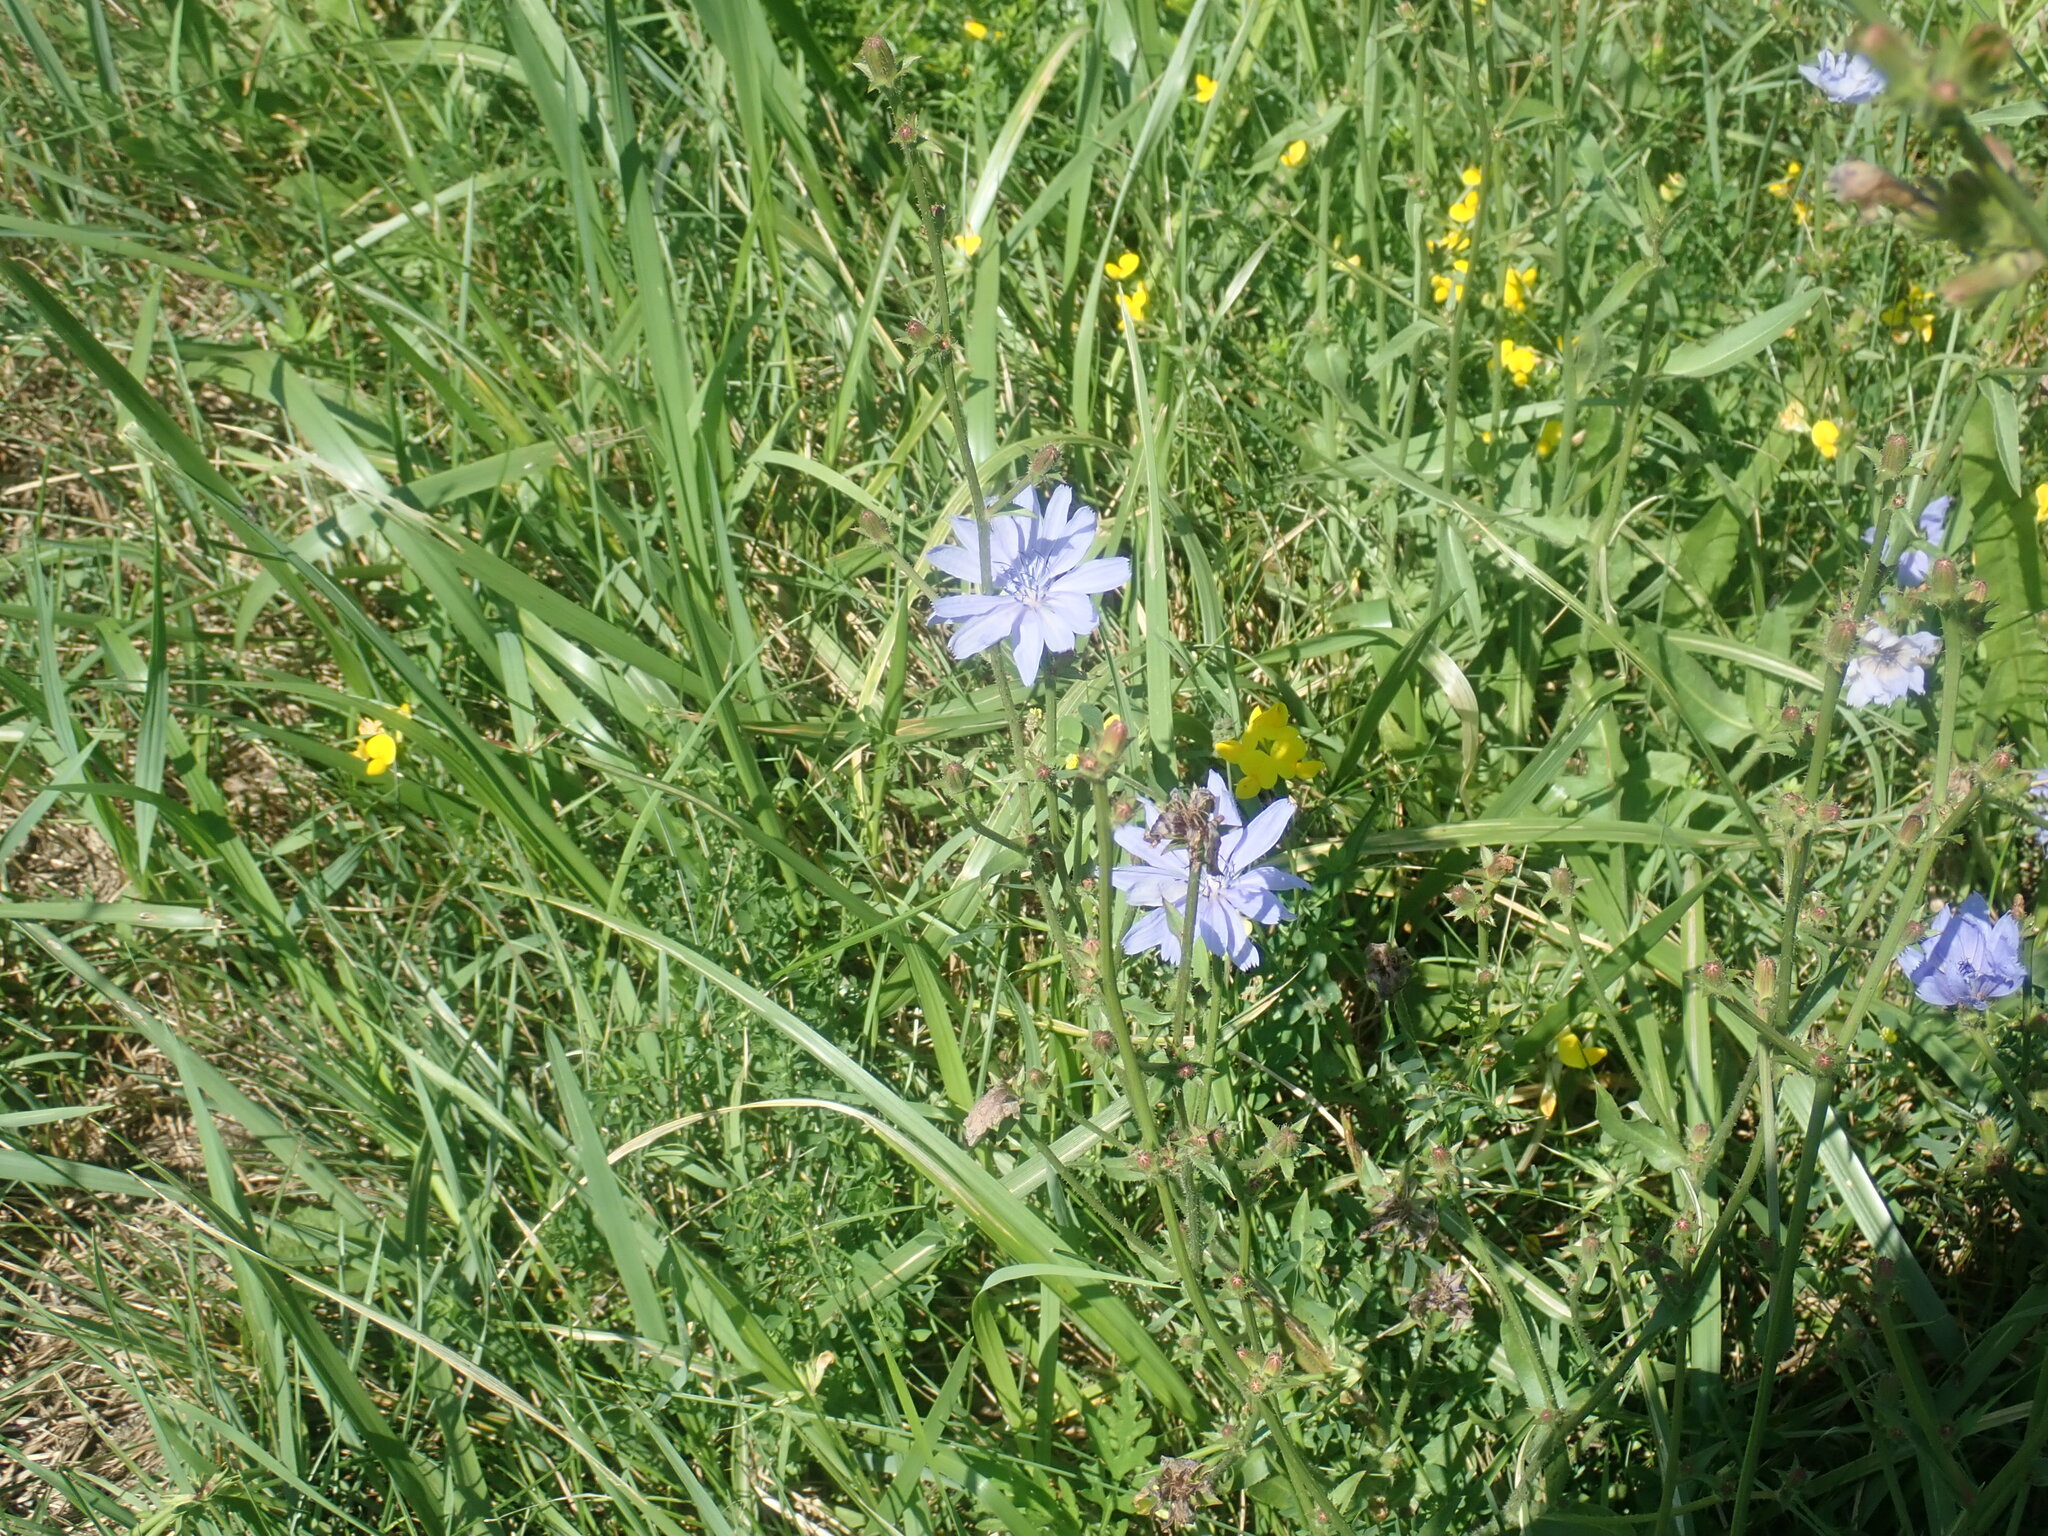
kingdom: Plantae
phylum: Tracheophyta
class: Magnoliopsida
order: Asterales
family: Asteraceae
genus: Cichorium
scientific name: Cichorium intybus
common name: Chicory
